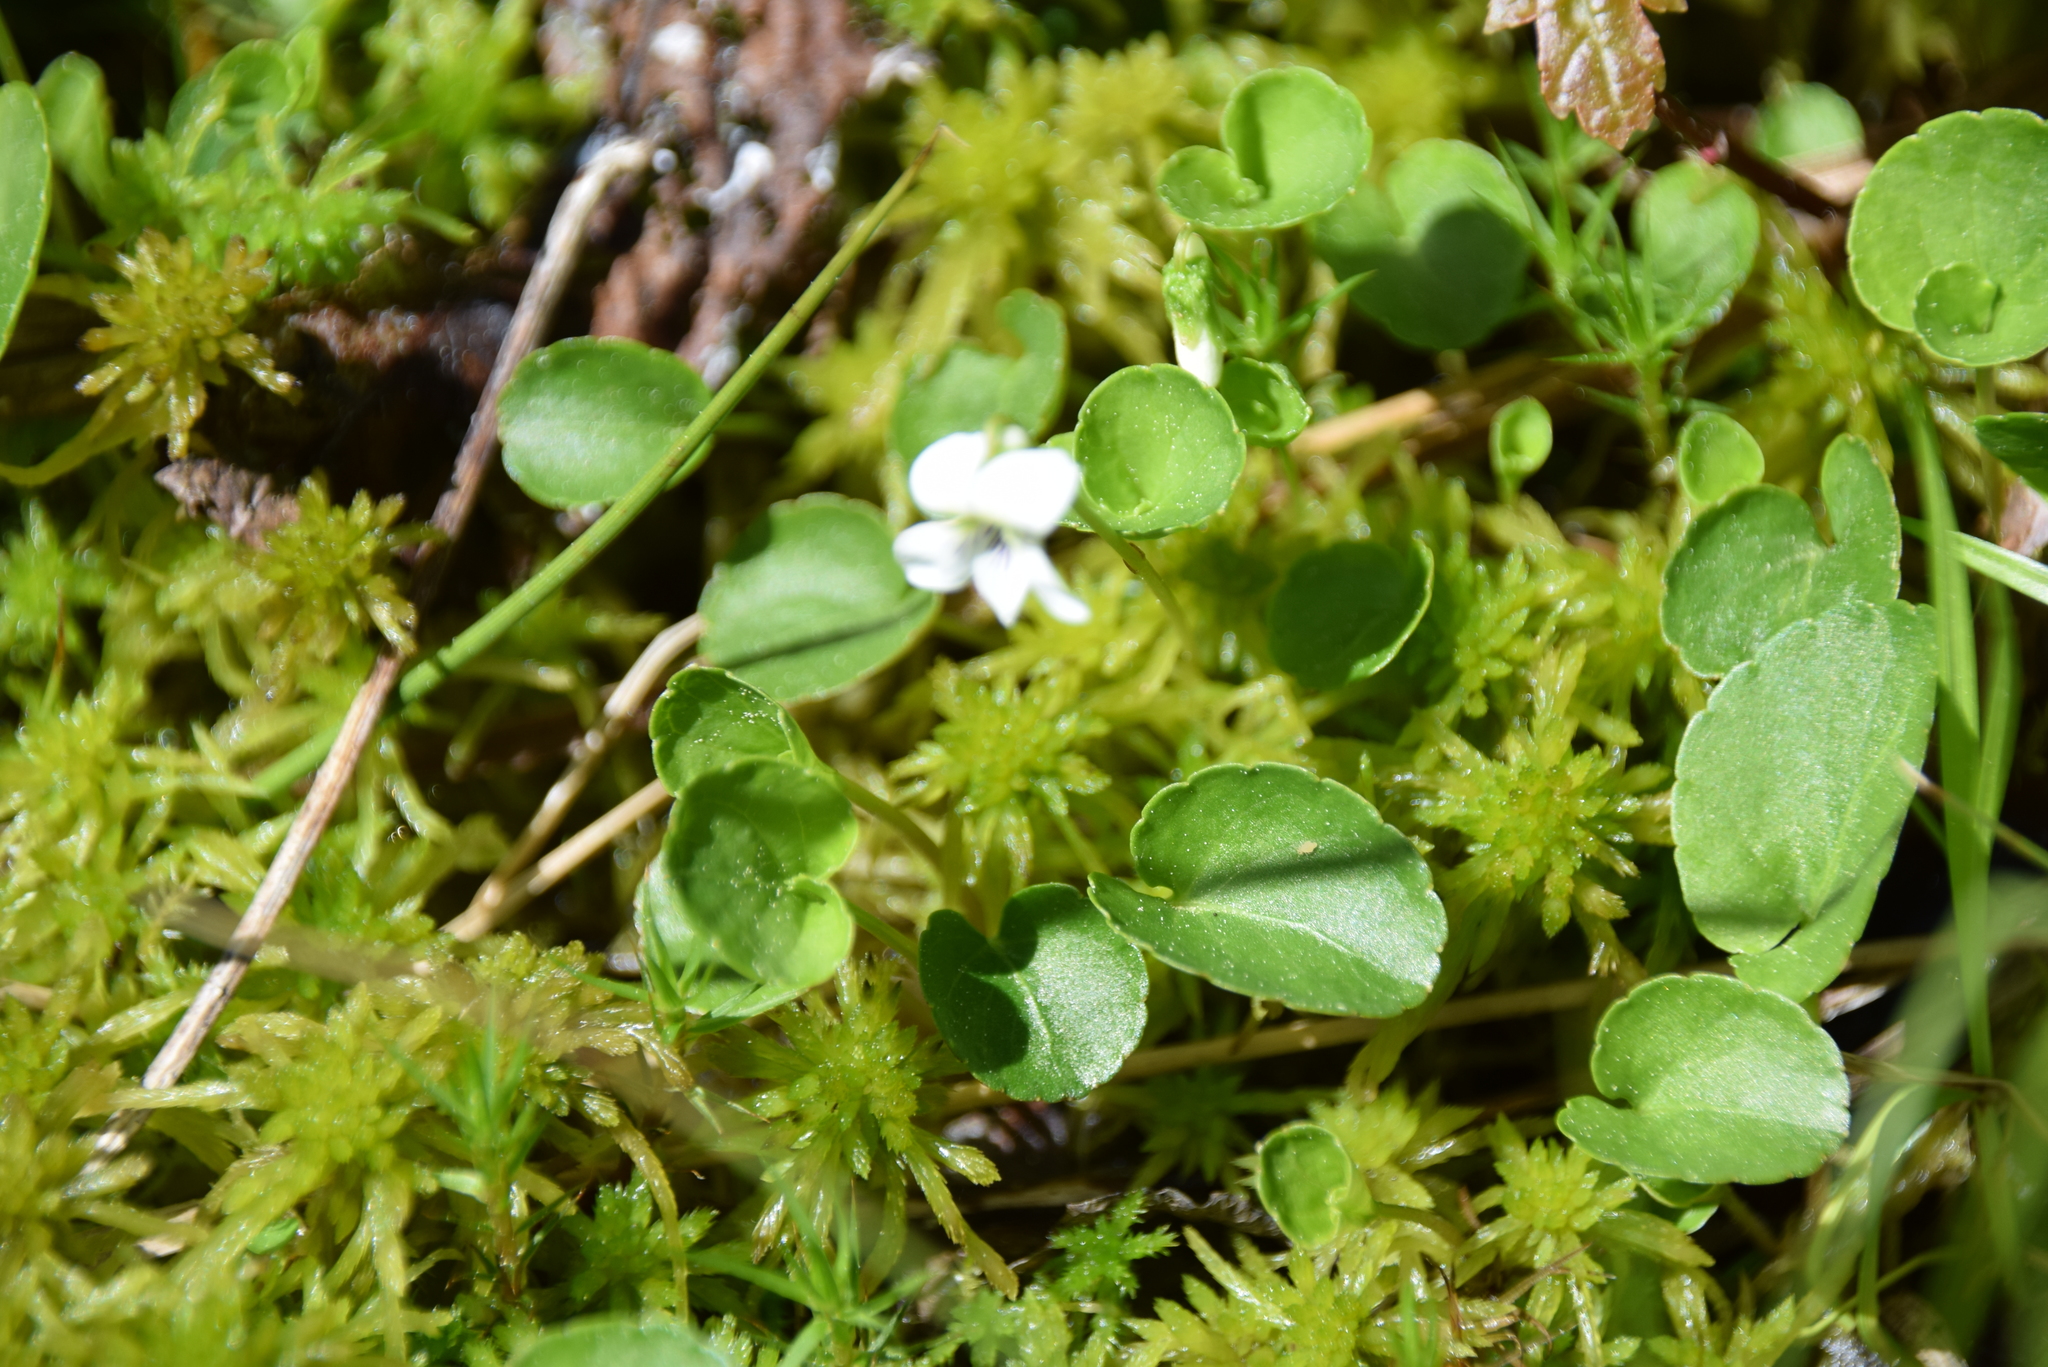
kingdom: Plantae
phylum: Tracheophyta
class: Magnoliopsida
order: Malpighiales
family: Violaceae
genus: Viola
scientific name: Viola minuscula
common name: Northern white violet
